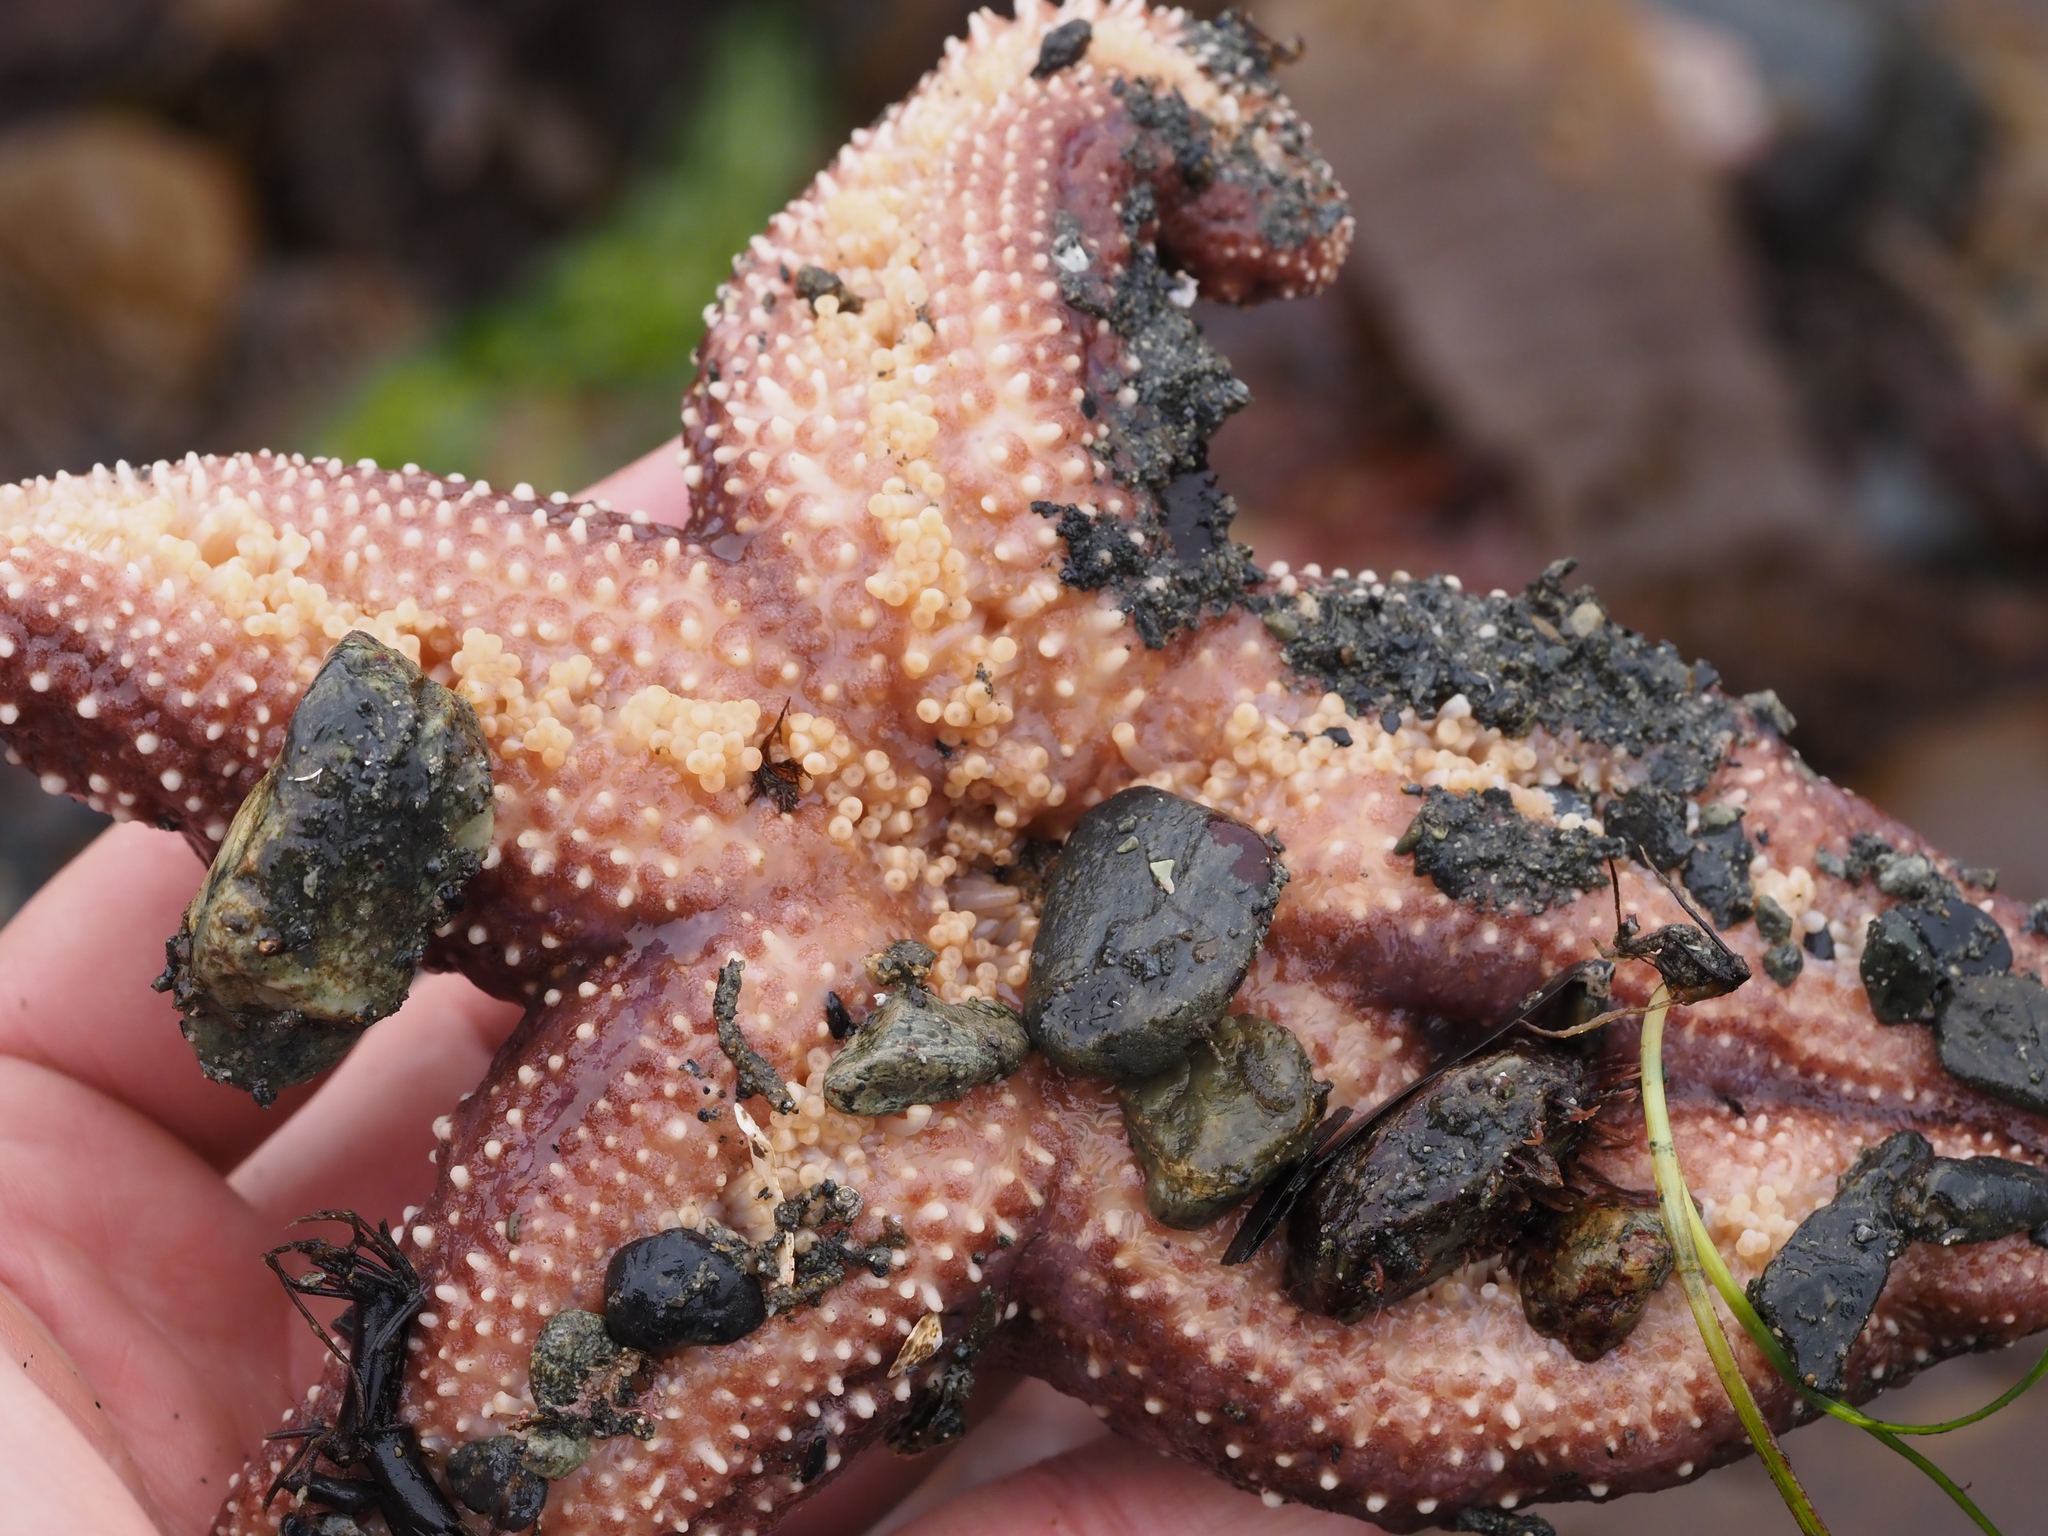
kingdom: Animalia
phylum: Echinodermata
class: Asteroidea
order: Forcipulatida
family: Asteriidae
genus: Pisaster
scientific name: Pisaster ochraceus
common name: Ochre stars
